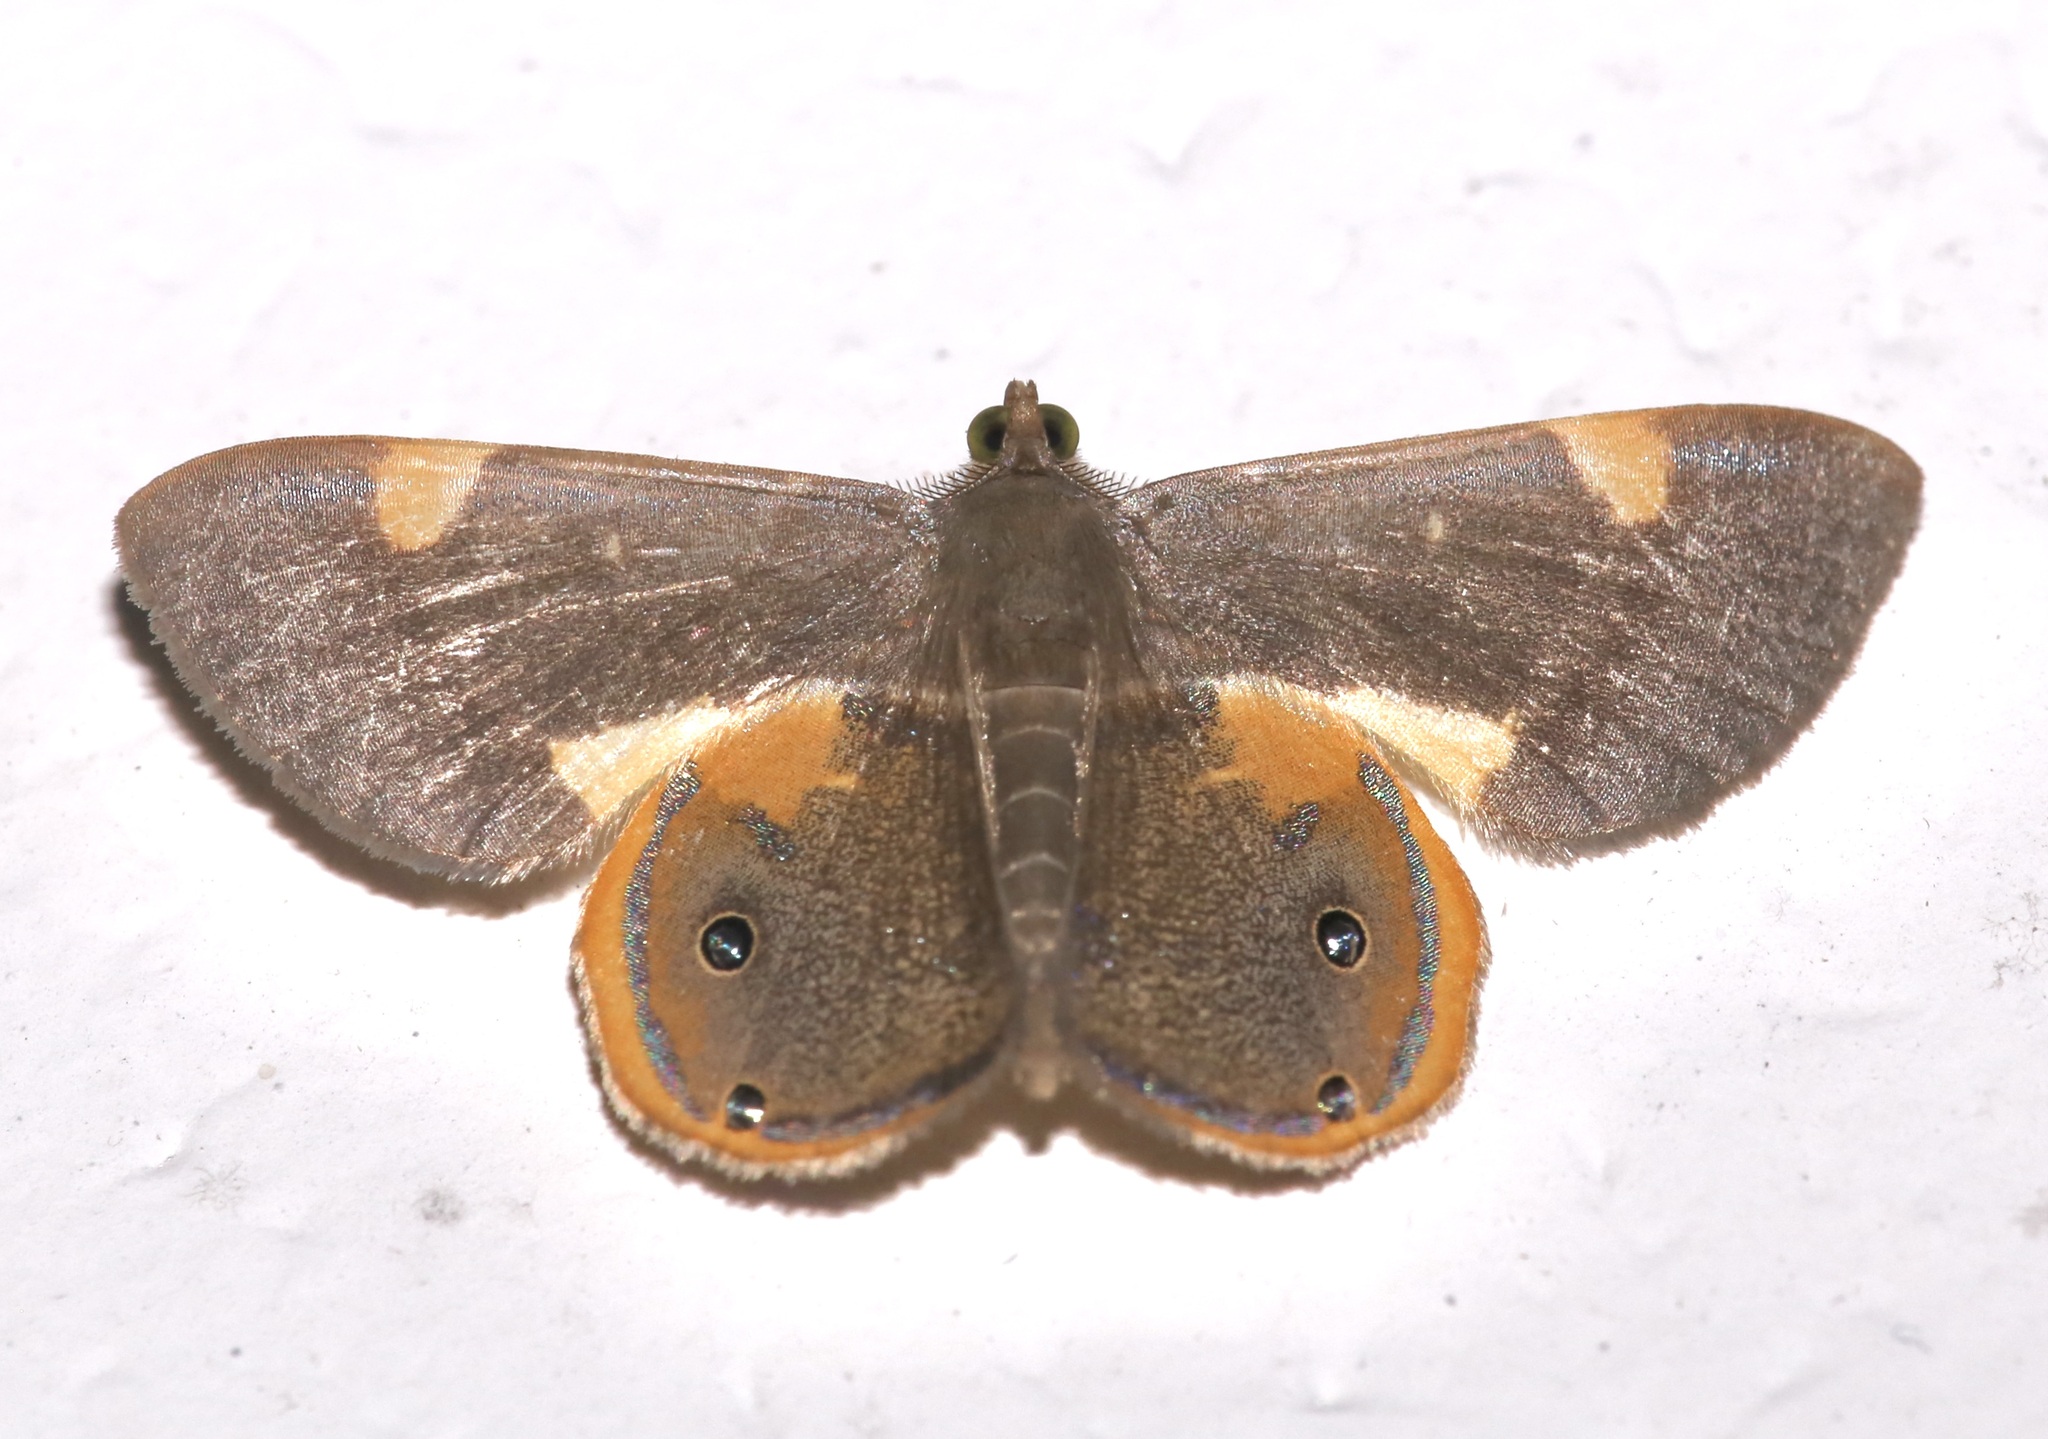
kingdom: Animalia
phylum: Arthropoda
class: Insecta
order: Lepidoptera
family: Geometridae
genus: Opisthoxia
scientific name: Opisthoxia haemon
